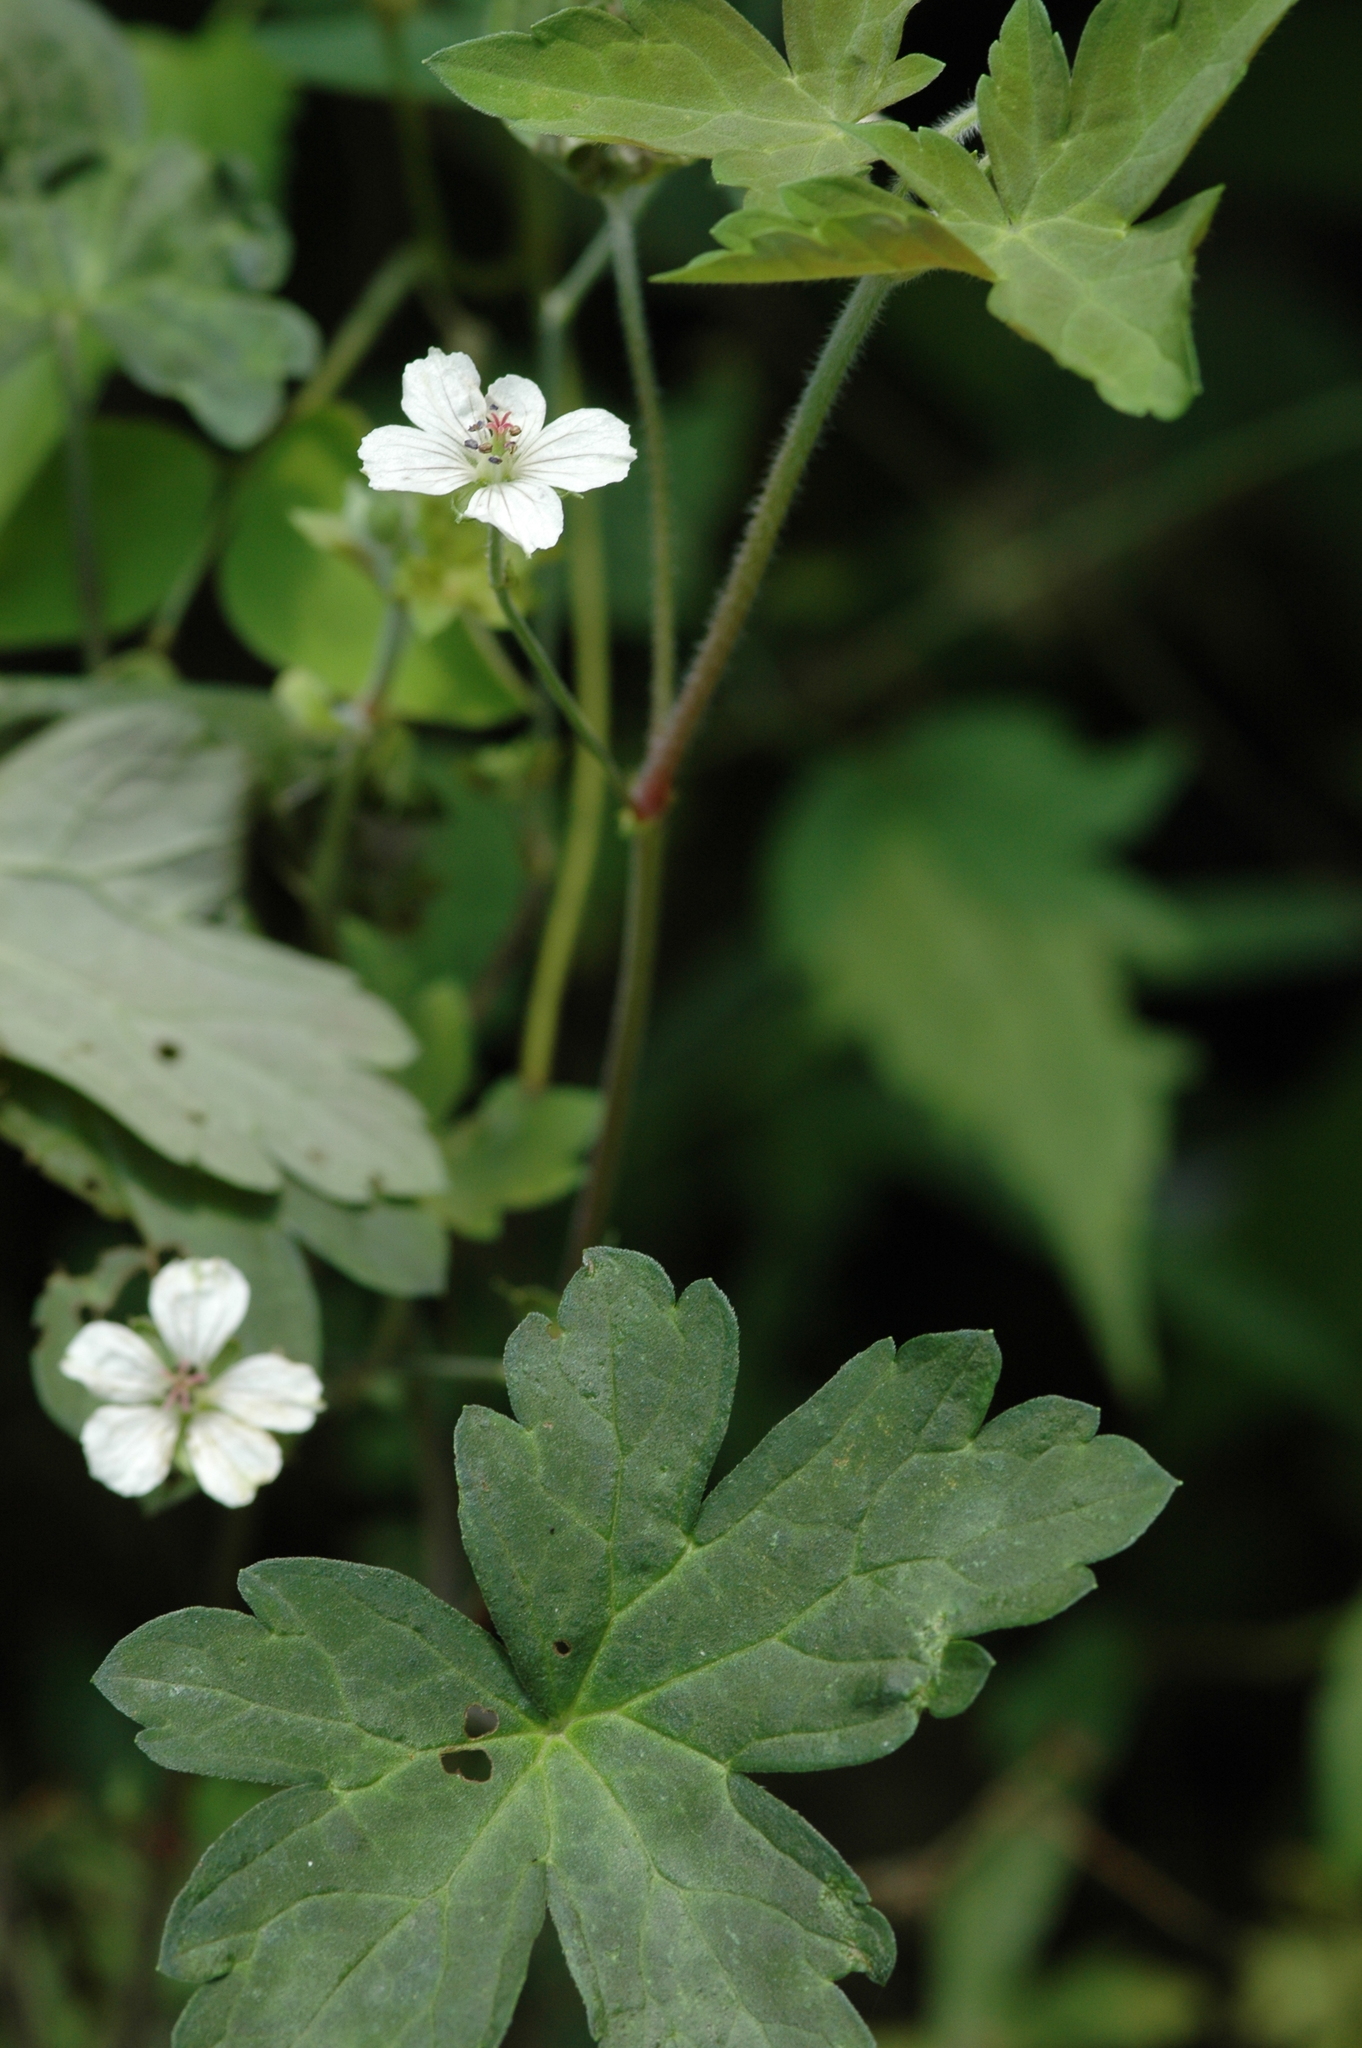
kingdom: Plantae
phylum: Tracheophyta
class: Magnoliopsida
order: Geraniales
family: Geraniaceae
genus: Geranium
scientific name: Geranium wilfordii
